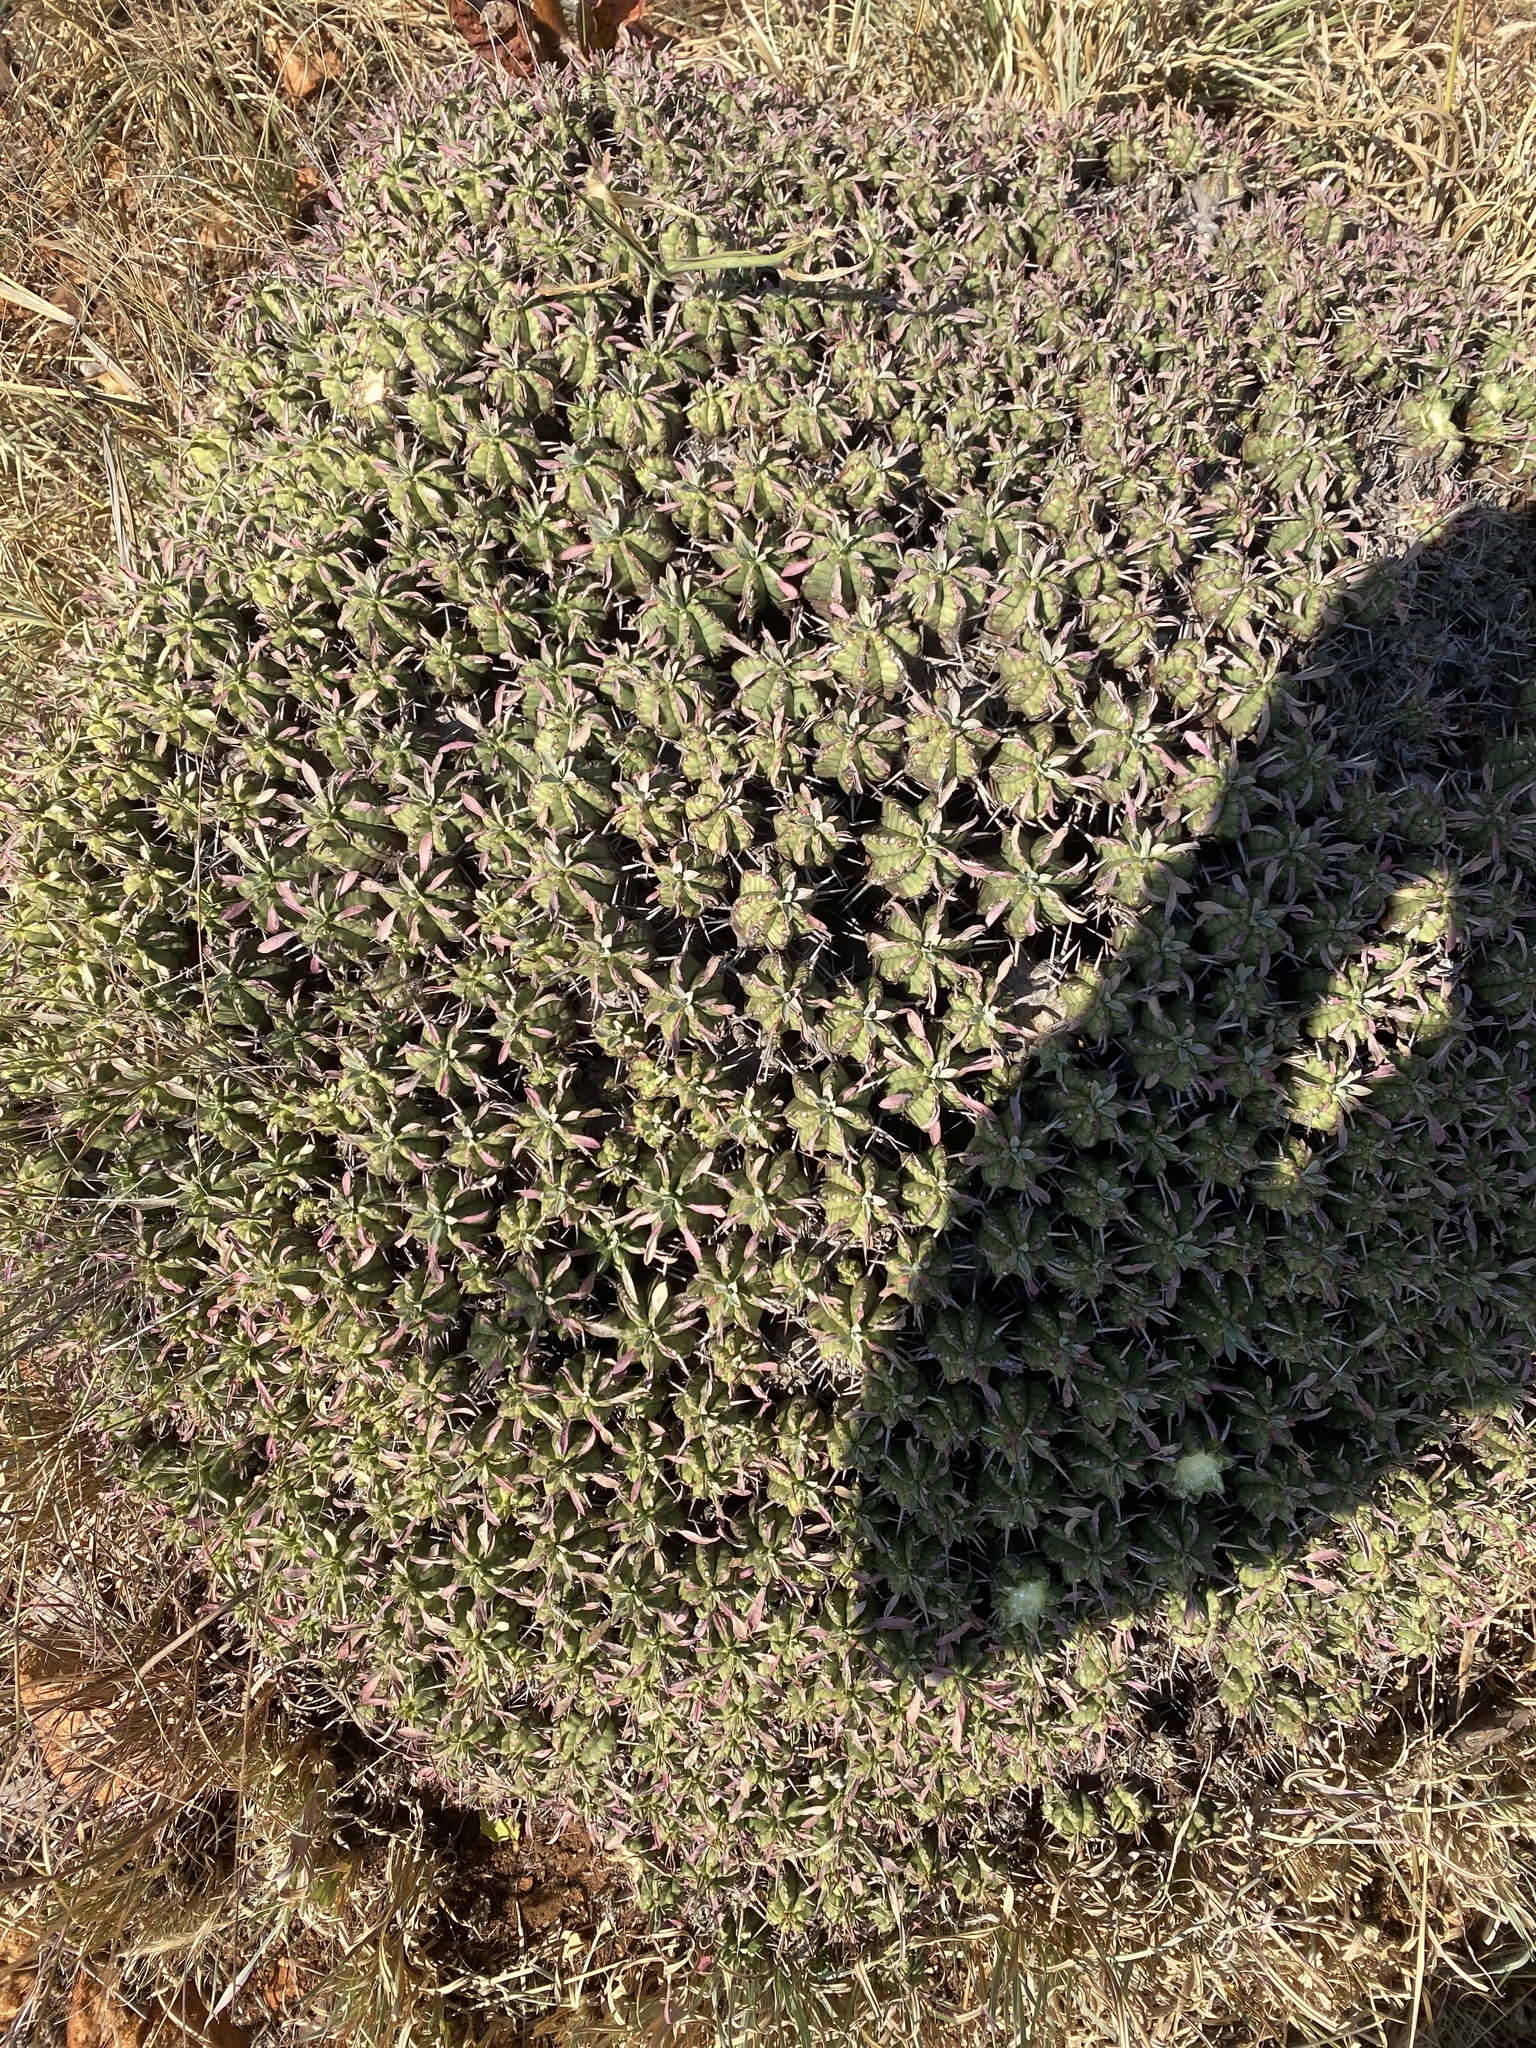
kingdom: Plantae
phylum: Tracheophyta
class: Magnoliopsida
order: Malpighiales
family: Euphorbiaceae
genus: Euphorbia
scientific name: Euphorbia pulvinata
